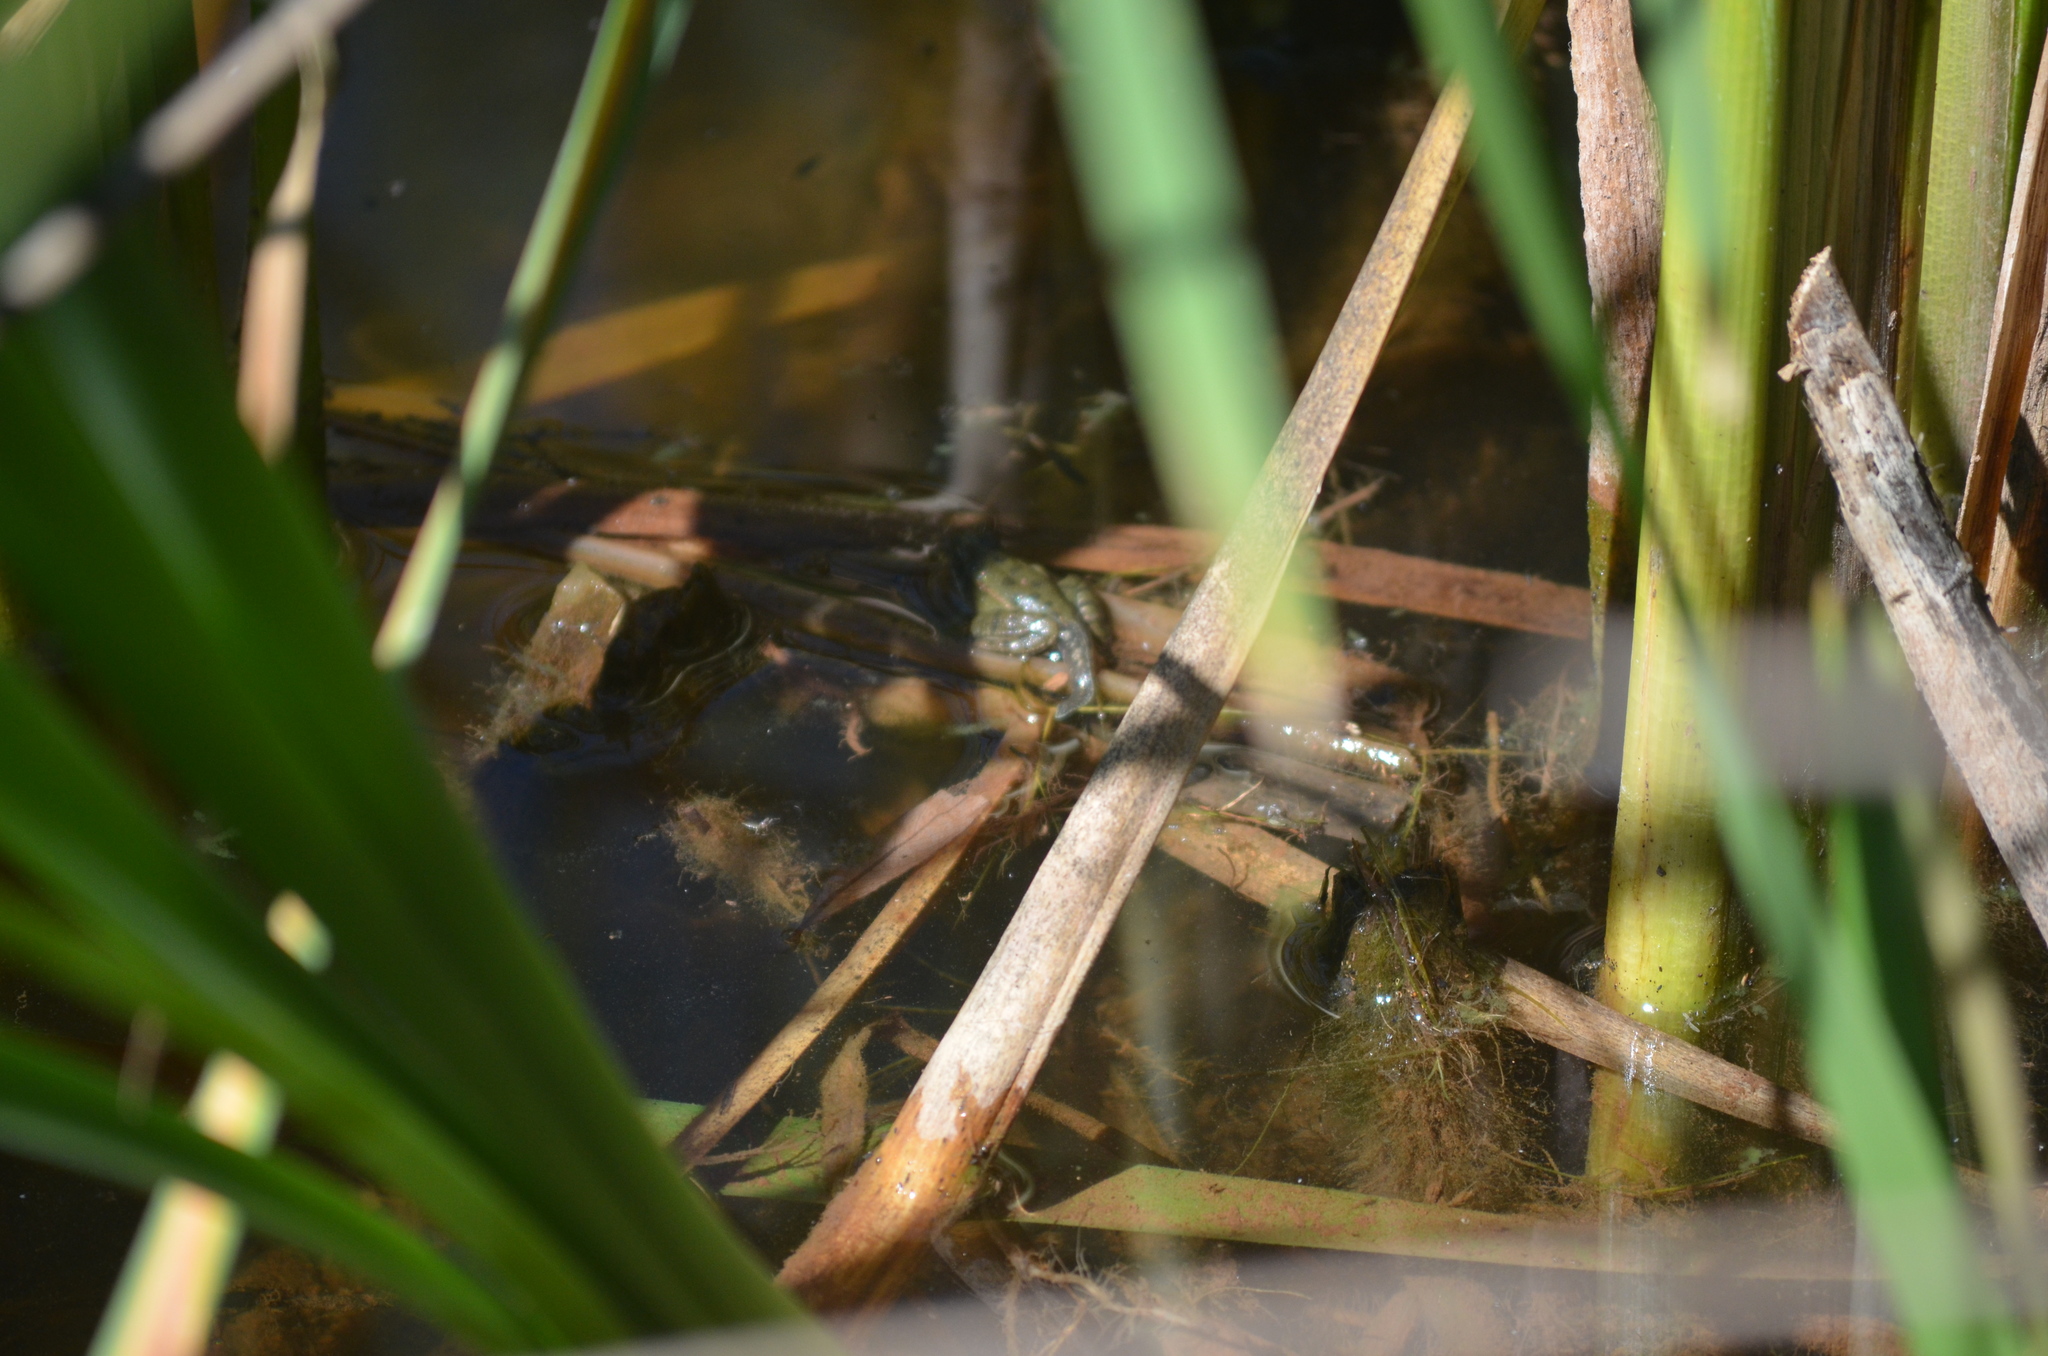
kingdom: Animalia
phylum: Chordata
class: Amphibia
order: Anura
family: Ranidae
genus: Pelophylax
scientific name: Pelophylax perezi
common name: Perez's frog
